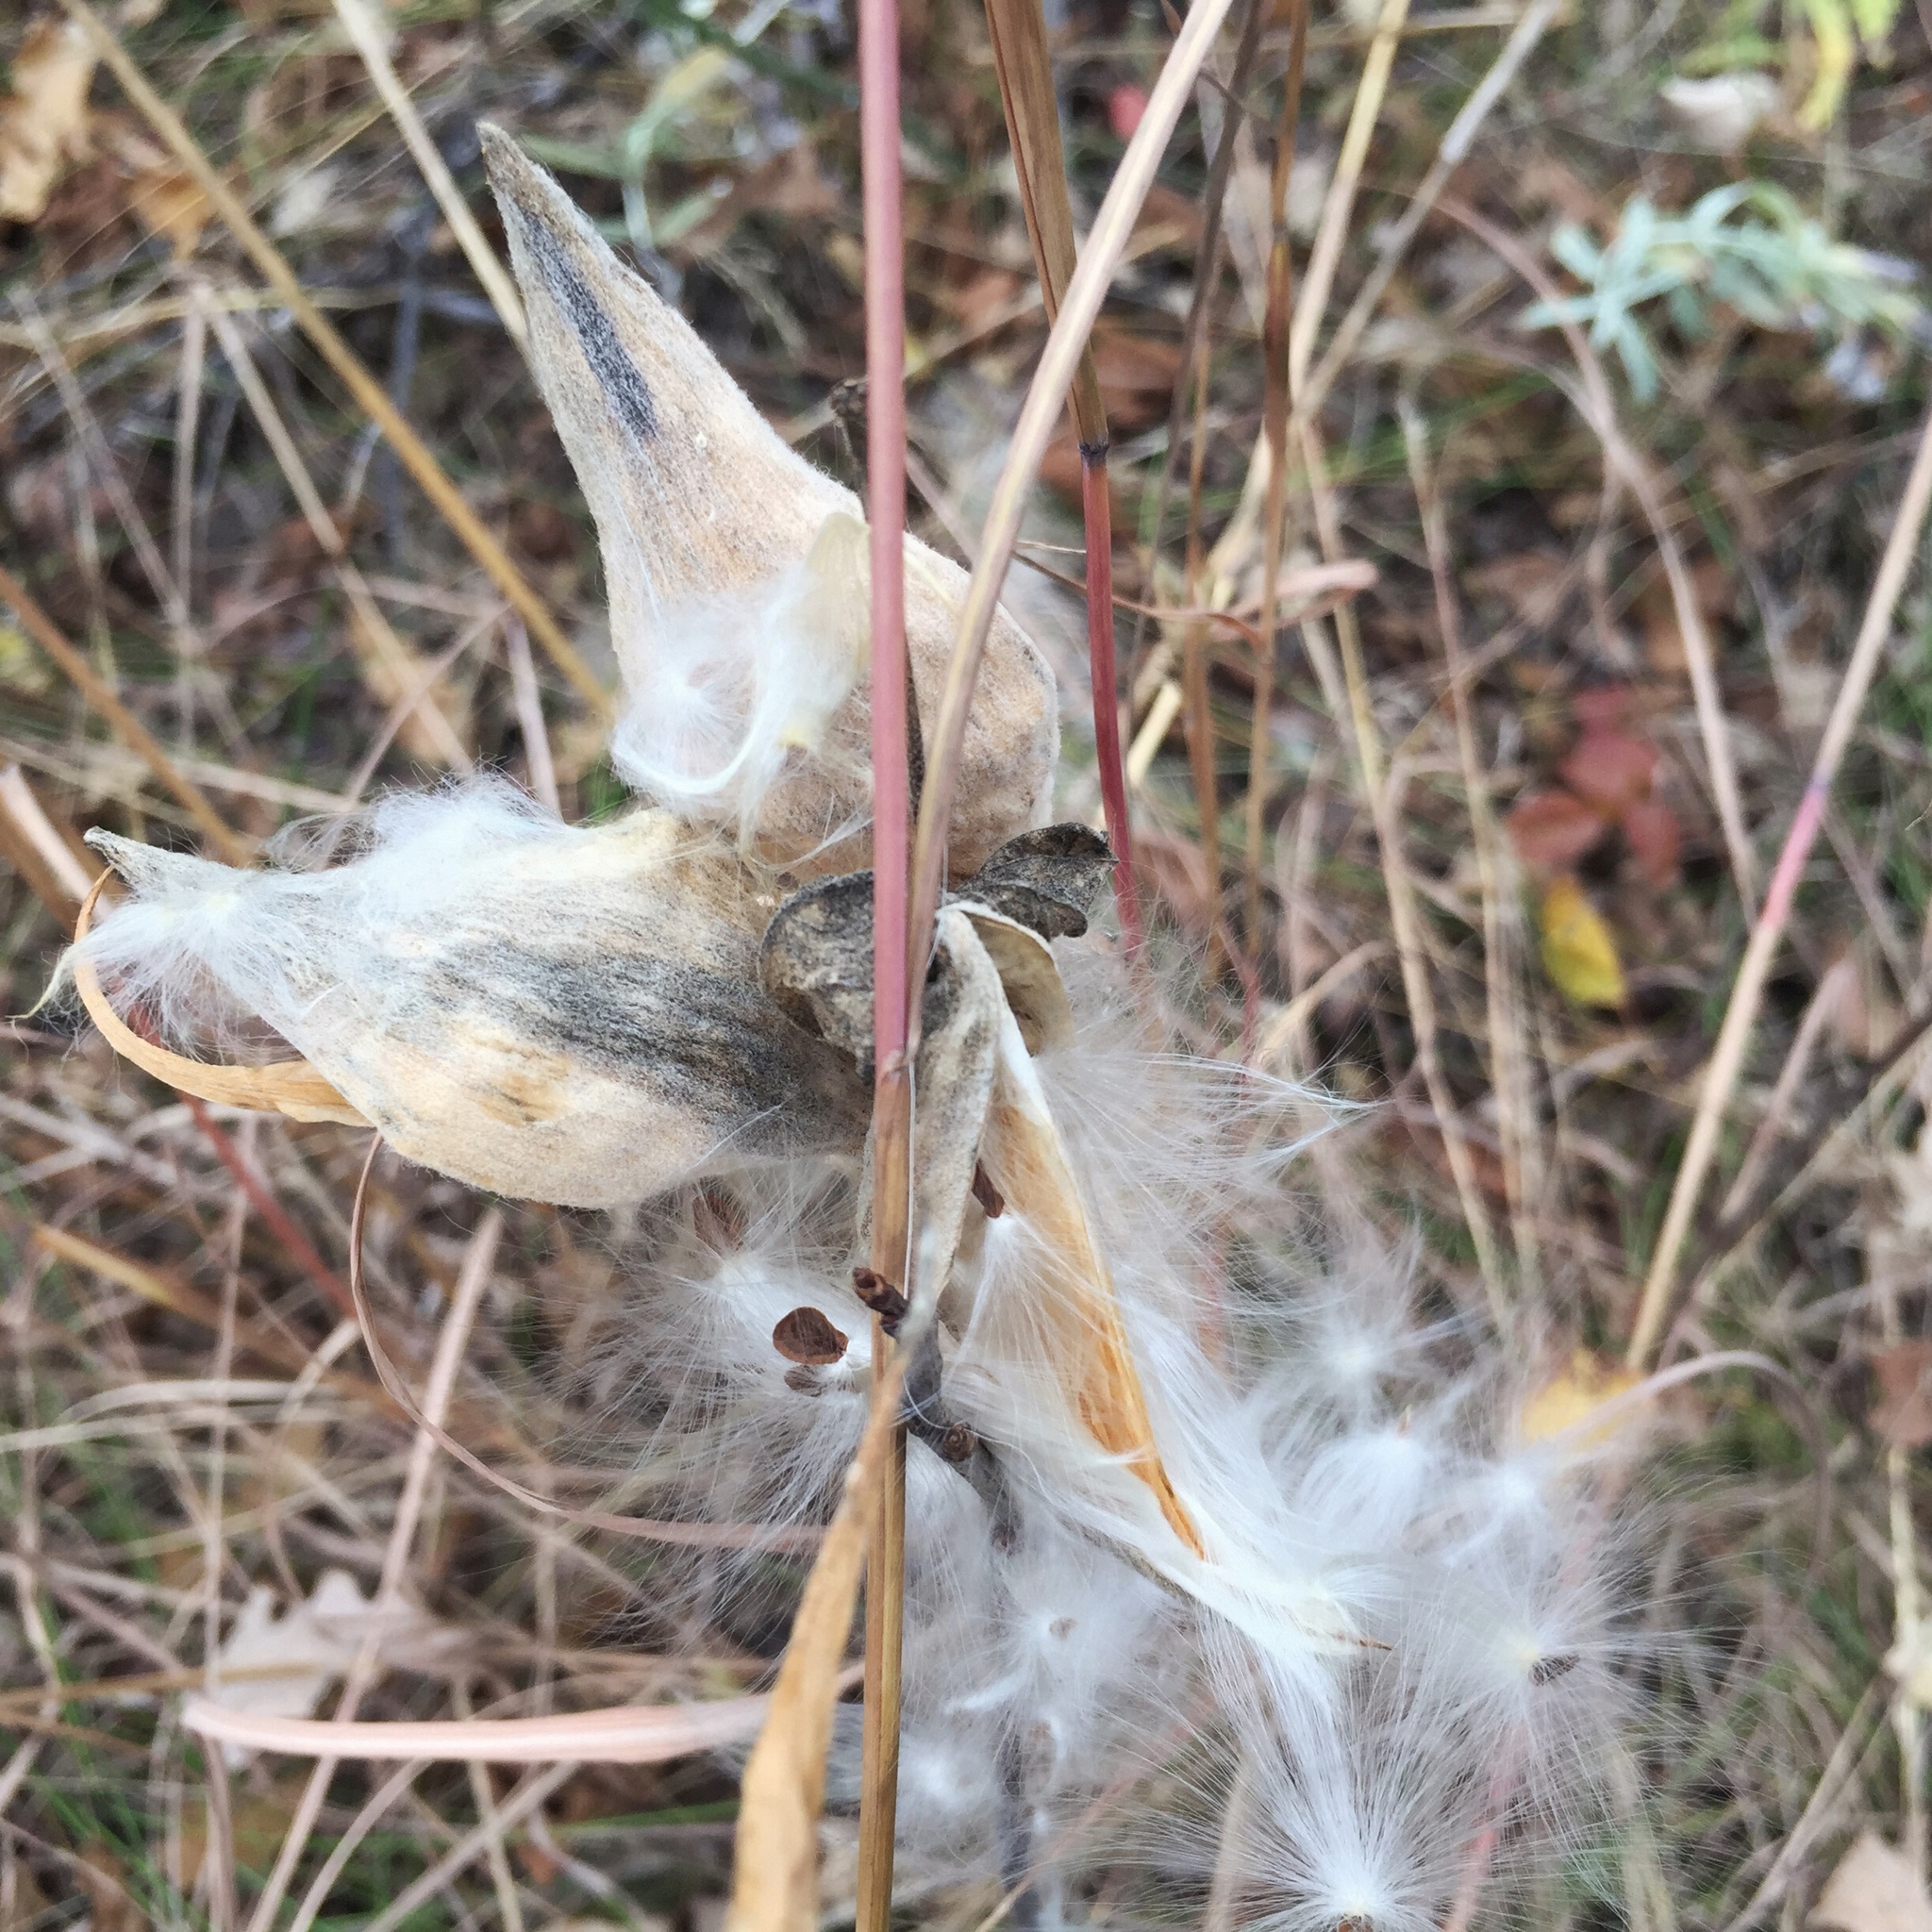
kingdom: Plantae
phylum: Tracheophyta
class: Magnoliopsida
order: Gentianales
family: Apocynaceae
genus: Asclepias
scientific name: Asclepias ovalifolia
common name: Dwarf milkweed
